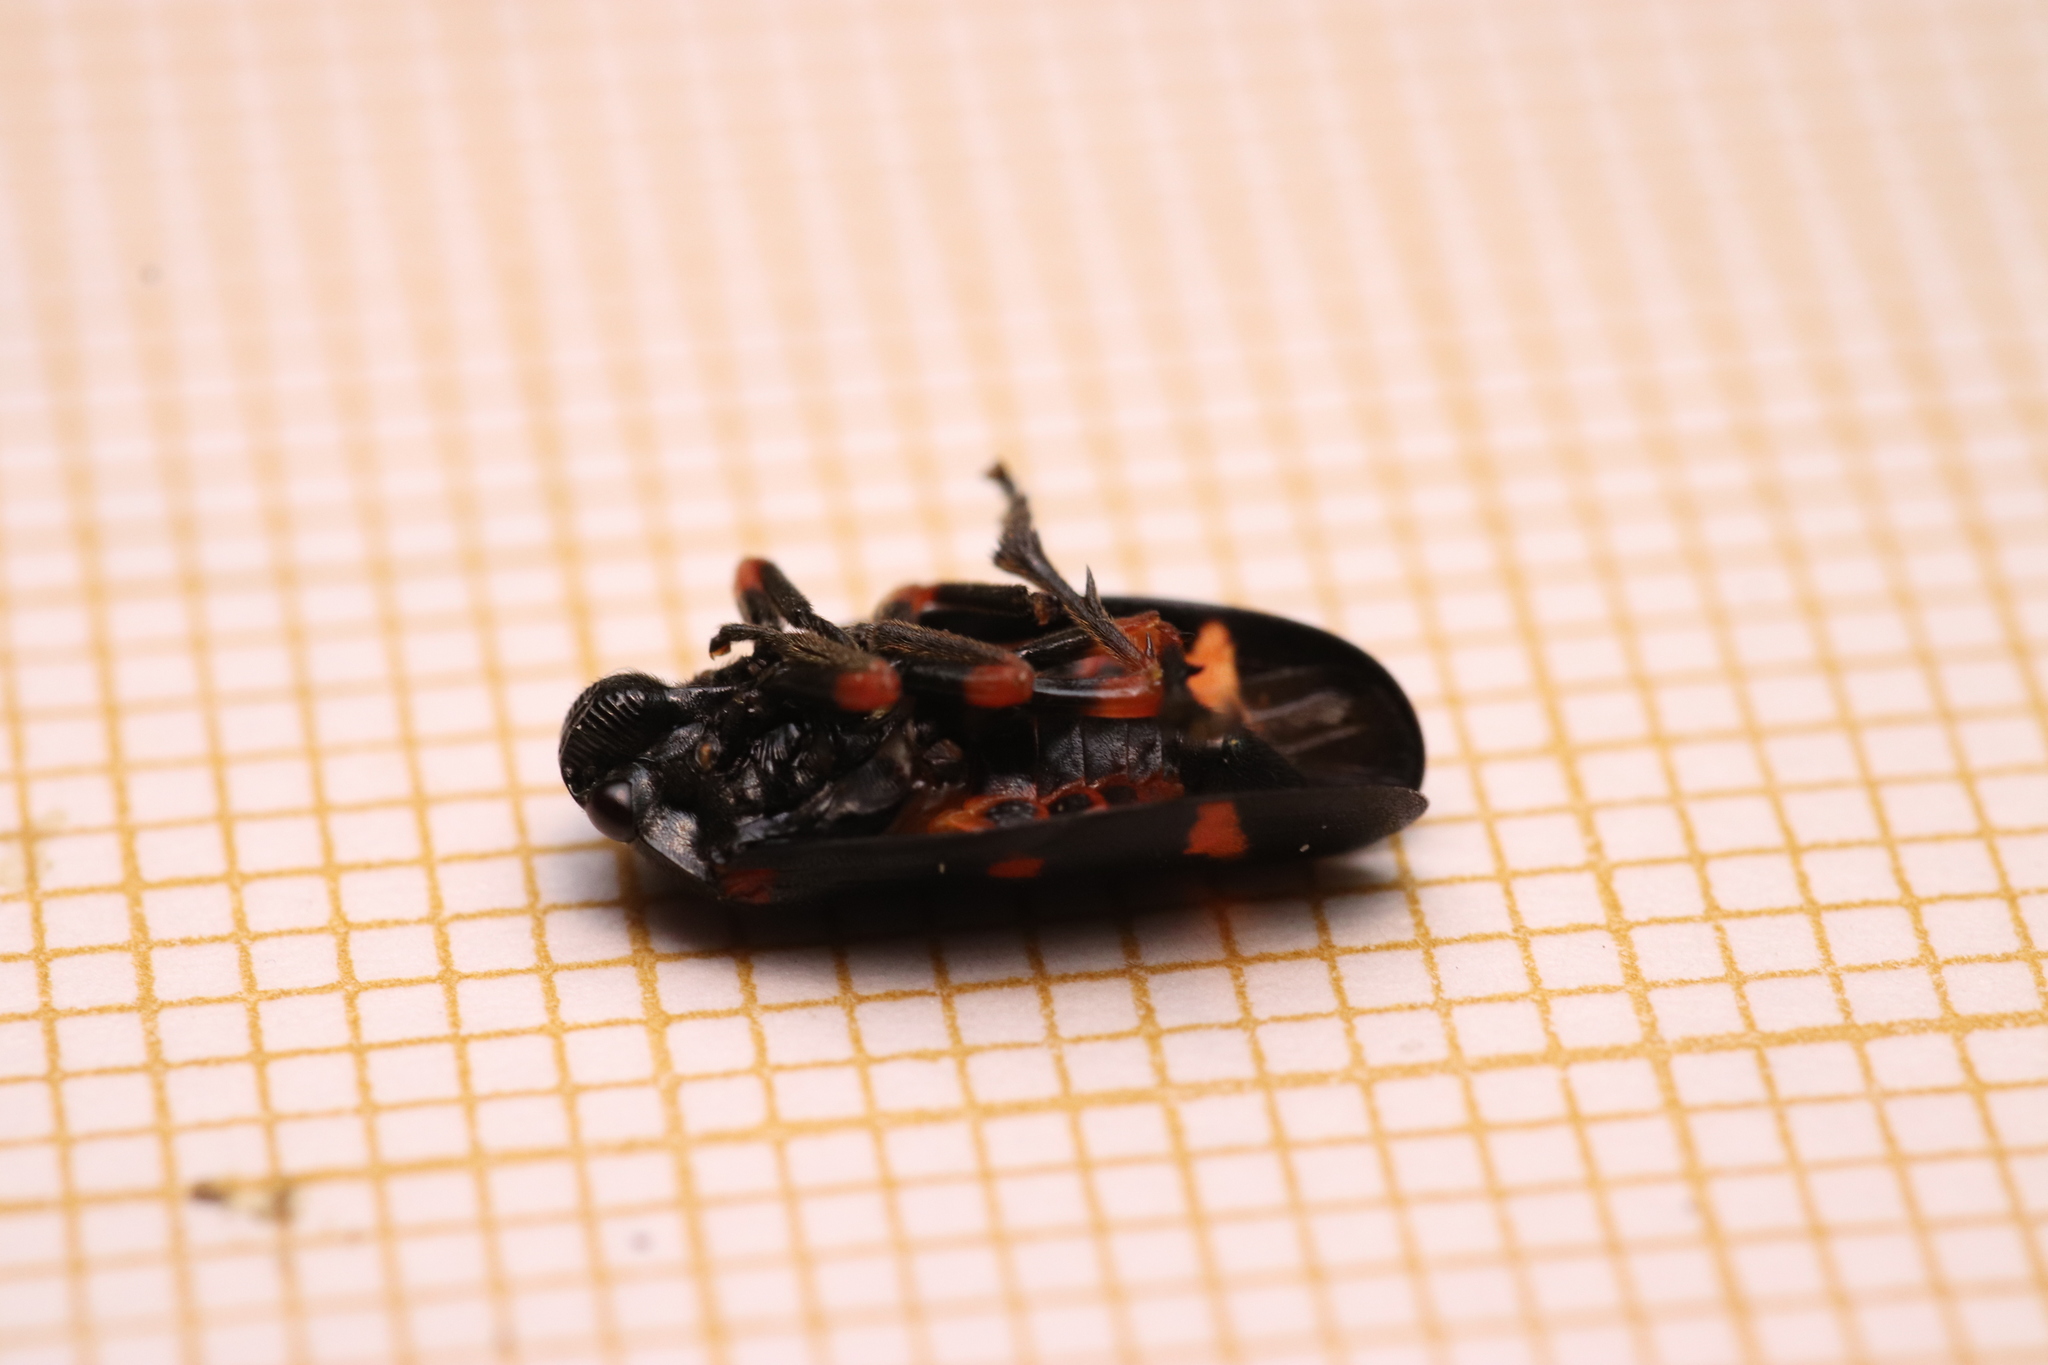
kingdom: Animalia
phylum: Arthropoda
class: Insecta
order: Hemiptera
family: Cercopidae
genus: Cercopis
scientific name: Cercopis intermedia
